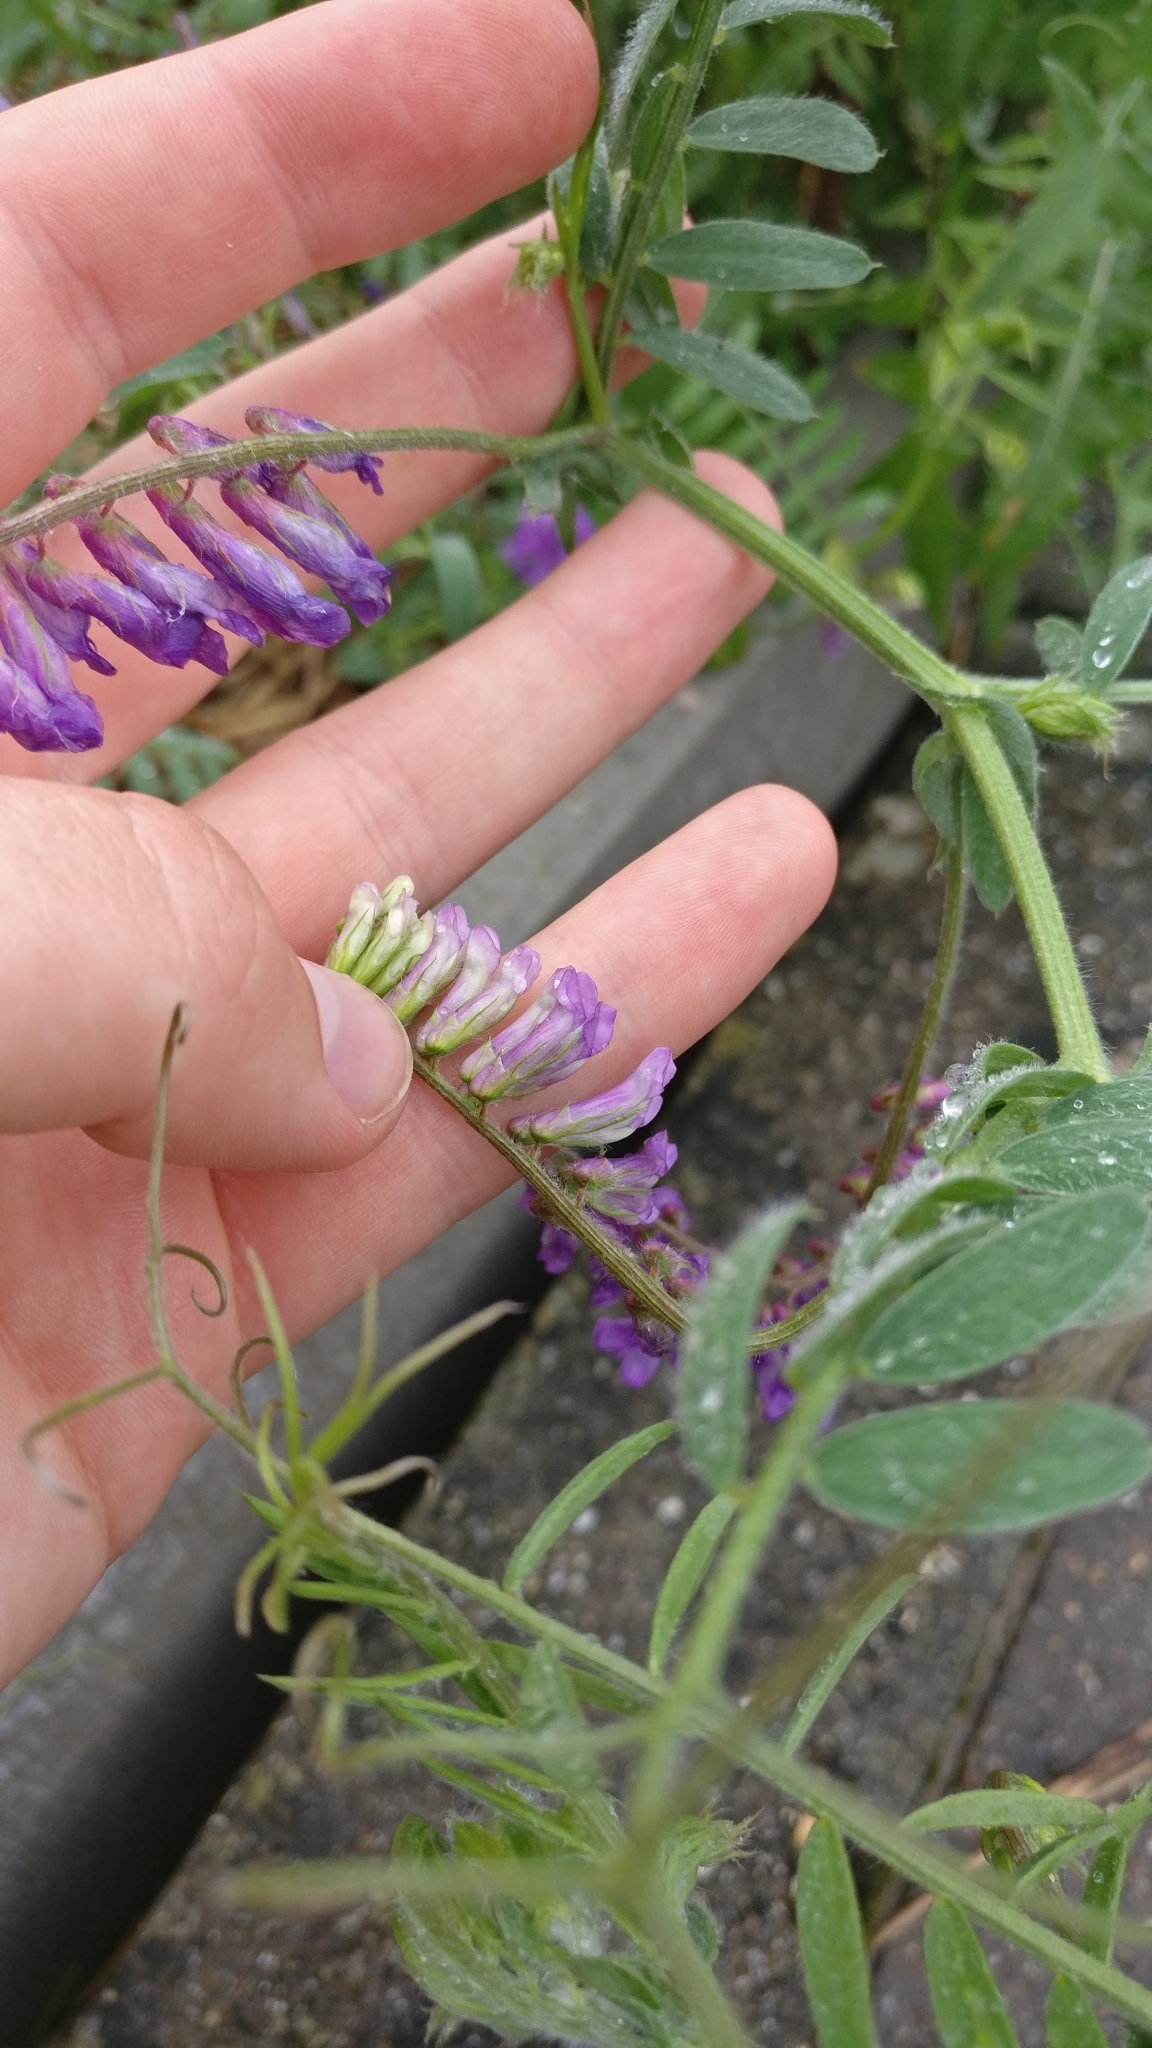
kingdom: Plantae
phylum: Tracheophyta
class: Magnoliopsida
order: Fabales
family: Fabaceae
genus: Vicia
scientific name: Vicia villosa
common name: Fodder vetch
